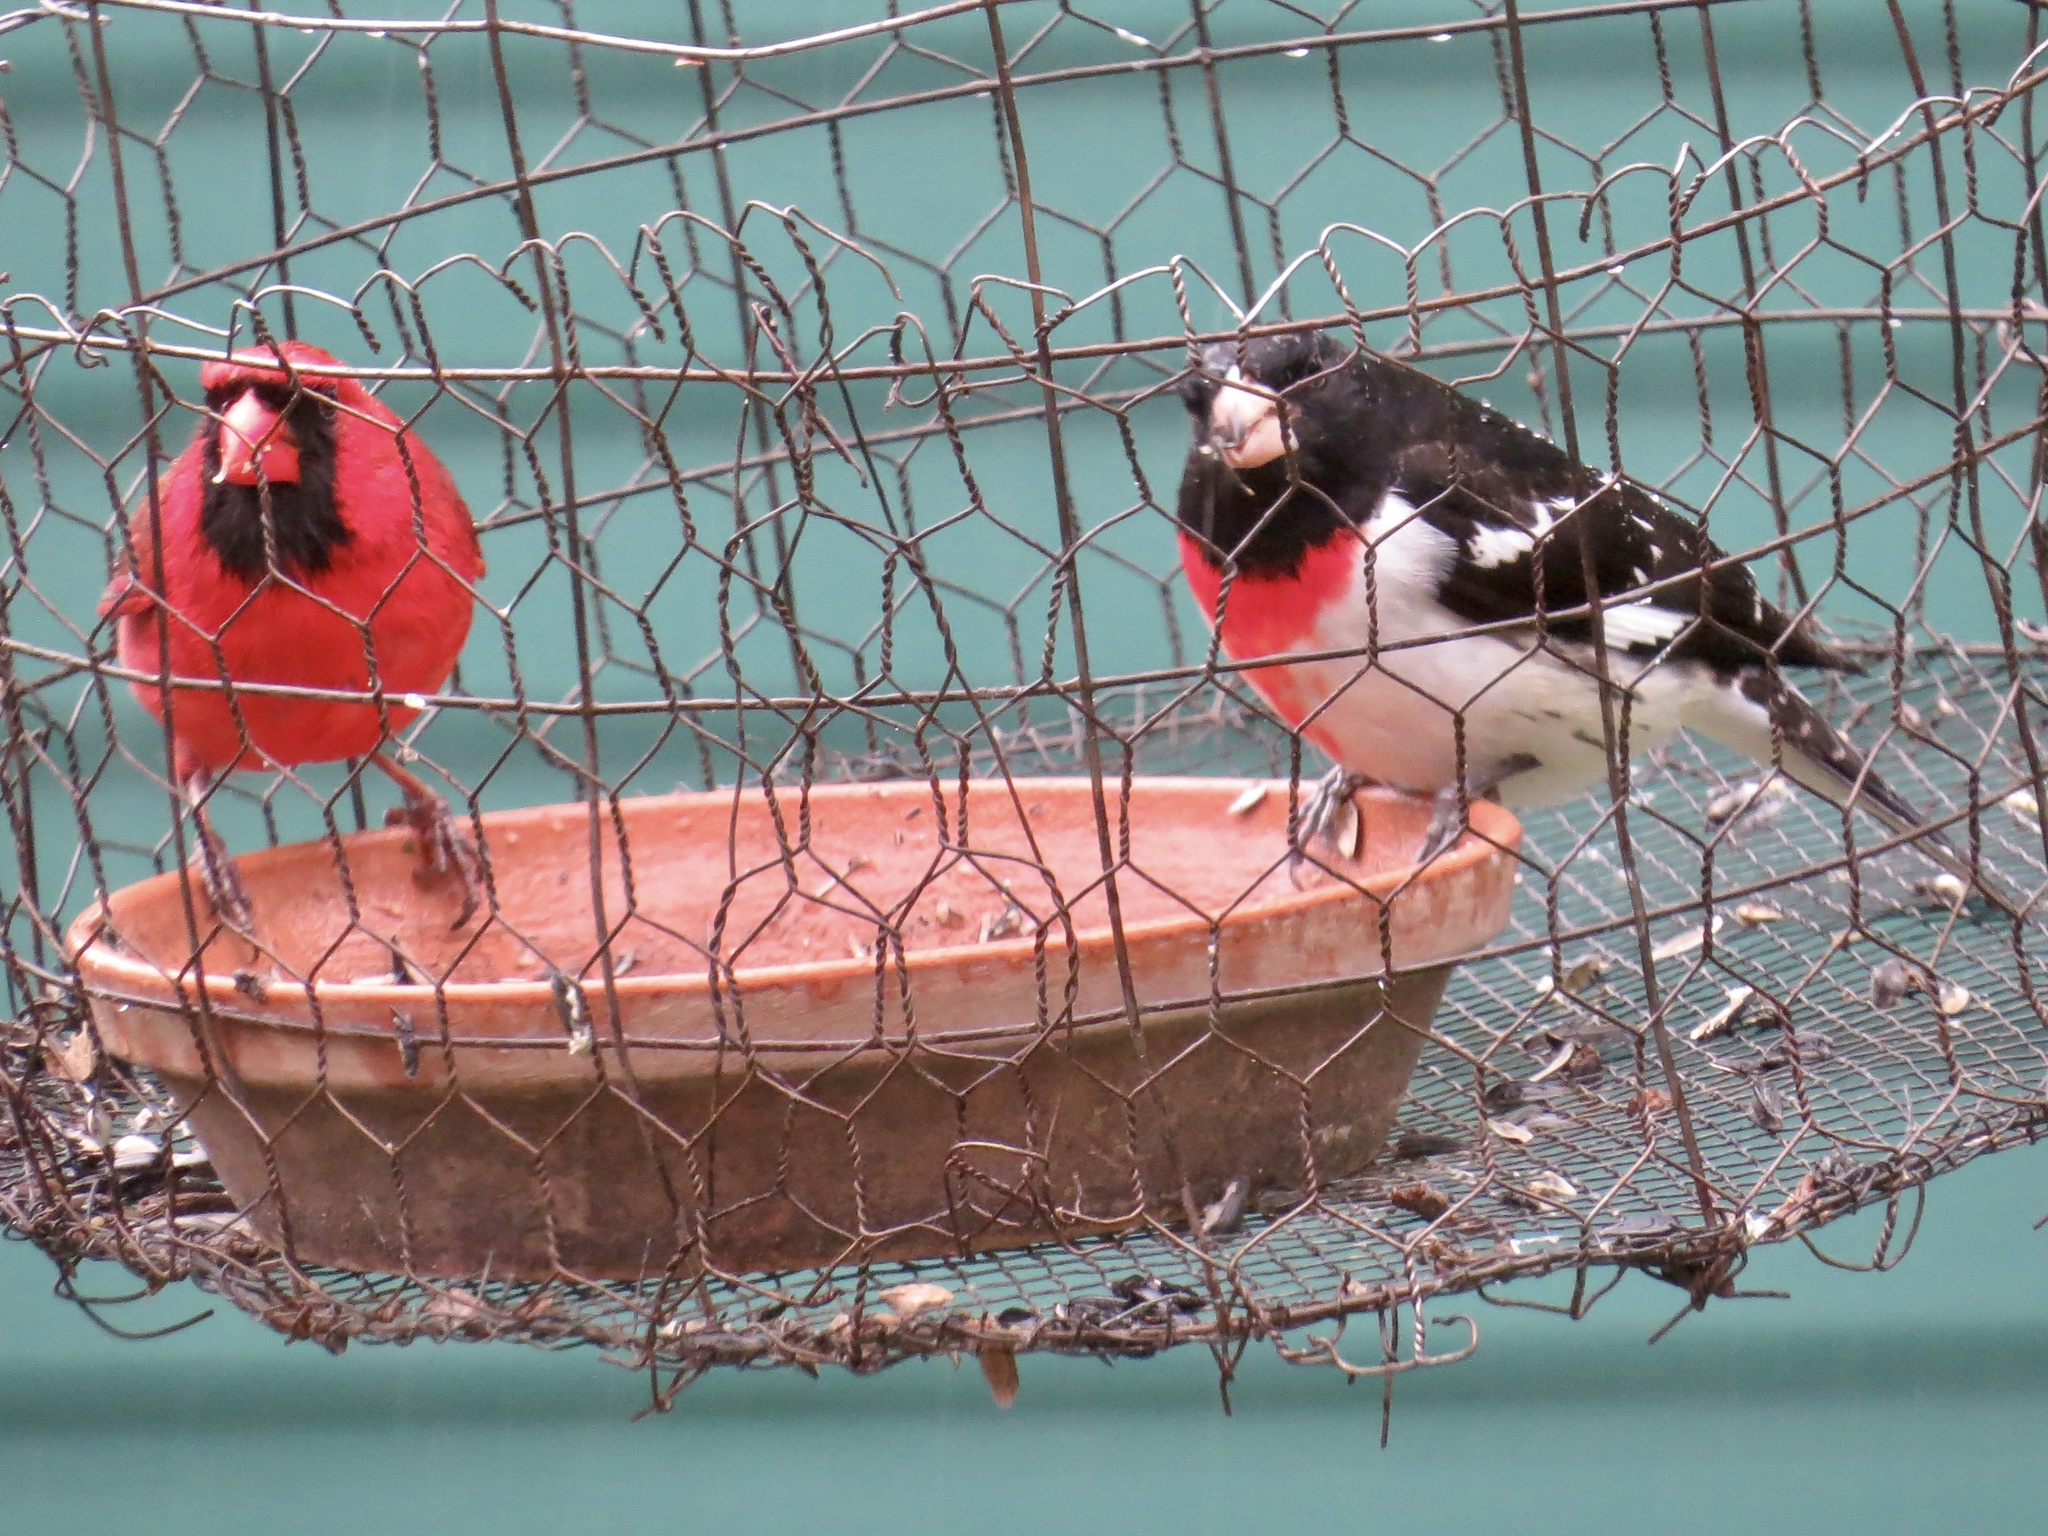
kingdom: Animalia
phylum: Chordata
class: Aves
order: Passeriformes
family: Cardinalidae
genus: Cardinalis
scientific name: Cardinalis cardinalis
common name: Northern cardinal
